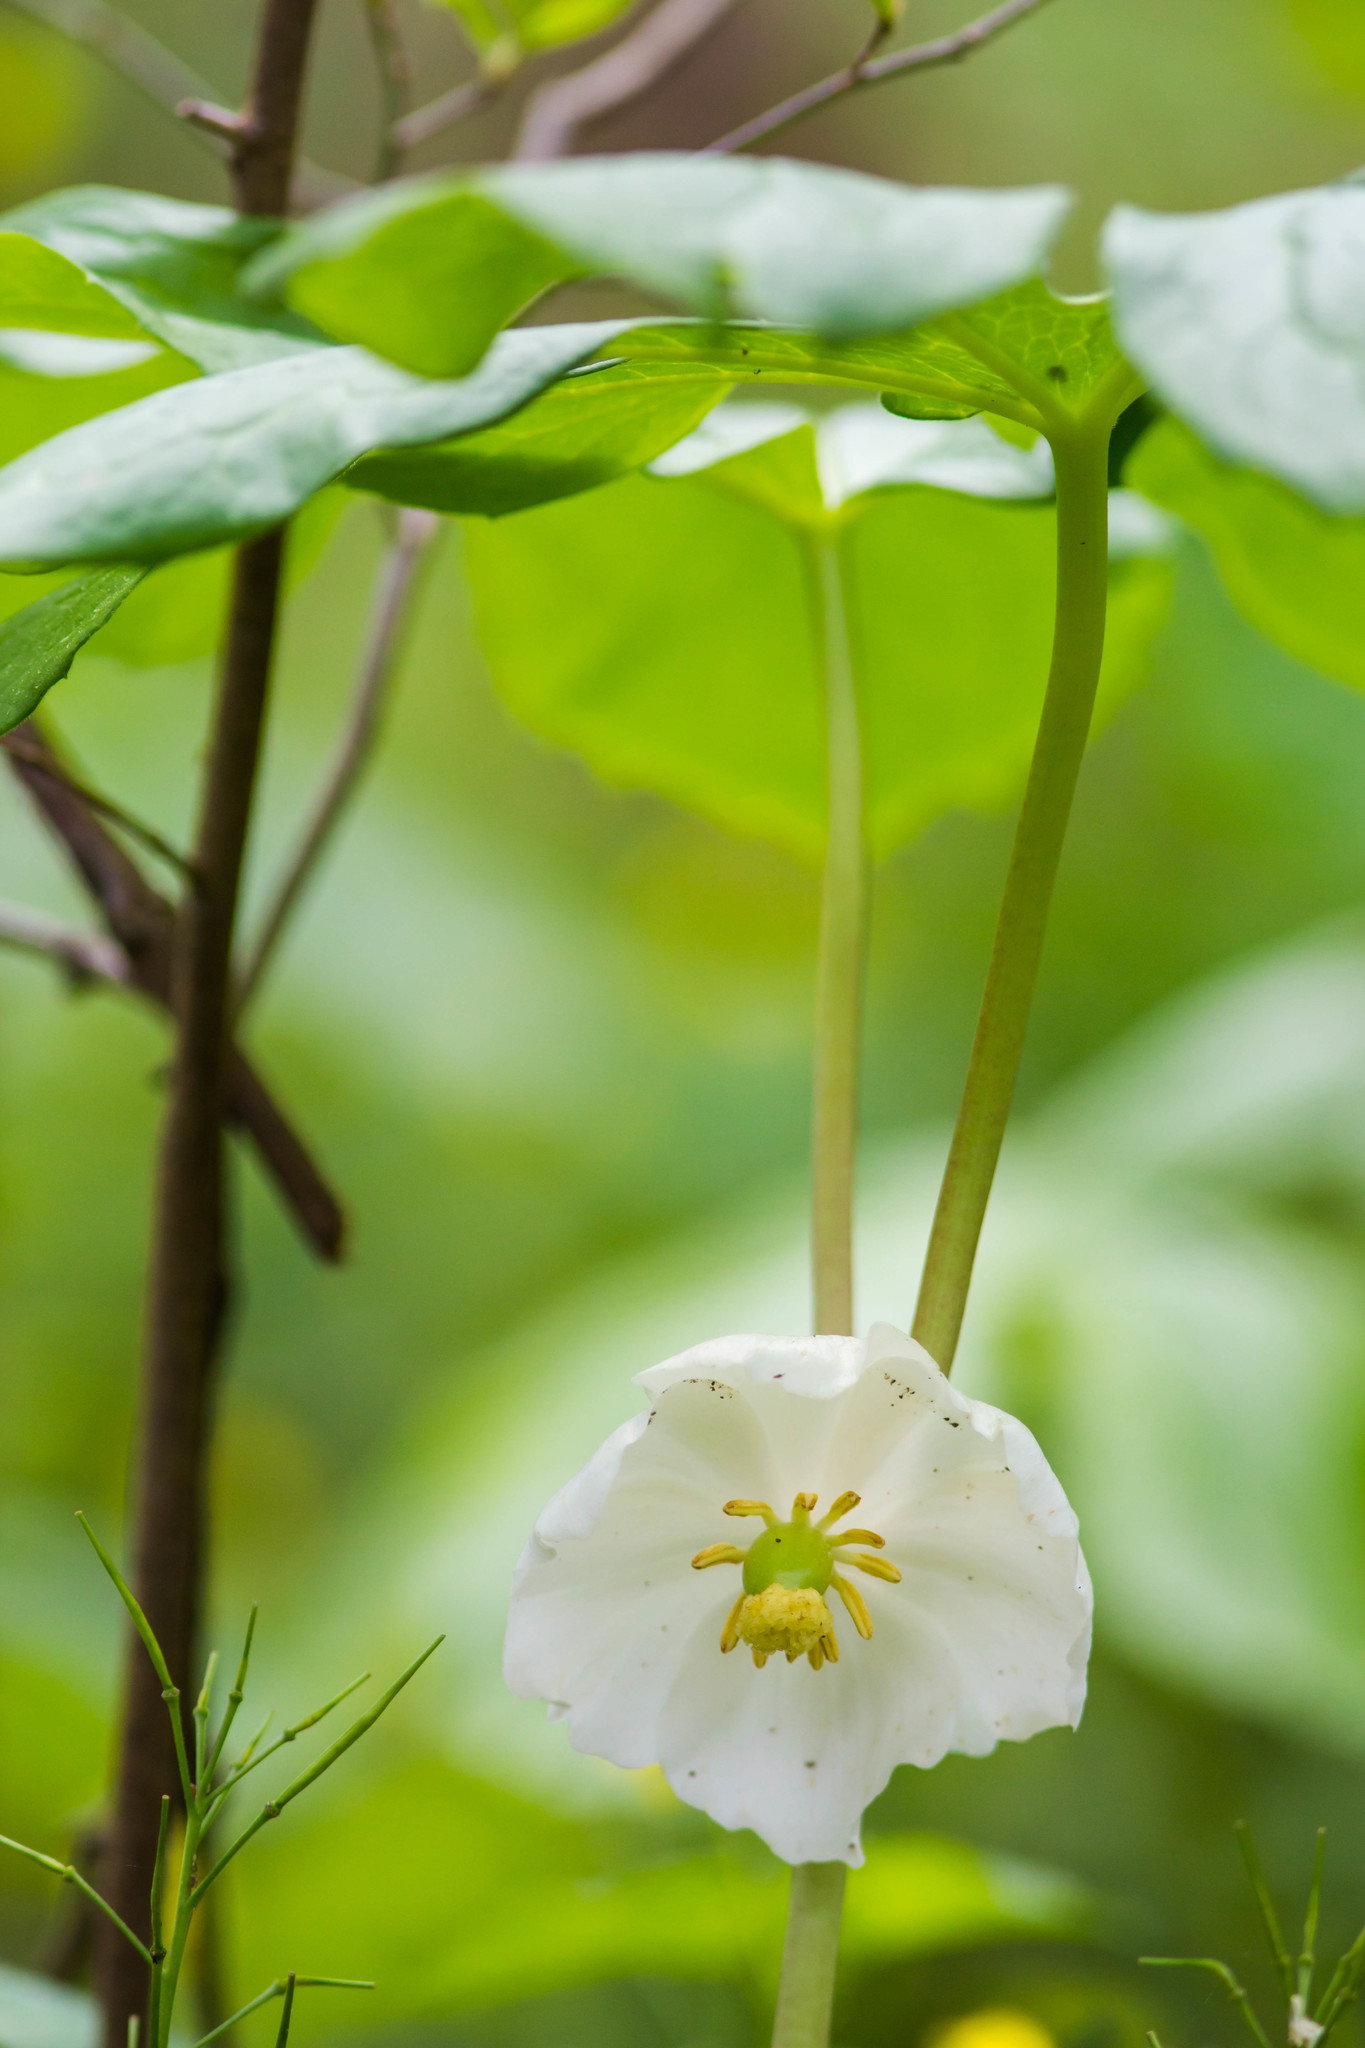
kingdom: Plantae
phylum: Tracheophyta
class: Magnoliopsida
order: Ranunculales
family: Berberidaceae
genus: Podophyllum
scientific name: Podophyllum peltatum
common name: Wild mandrake
